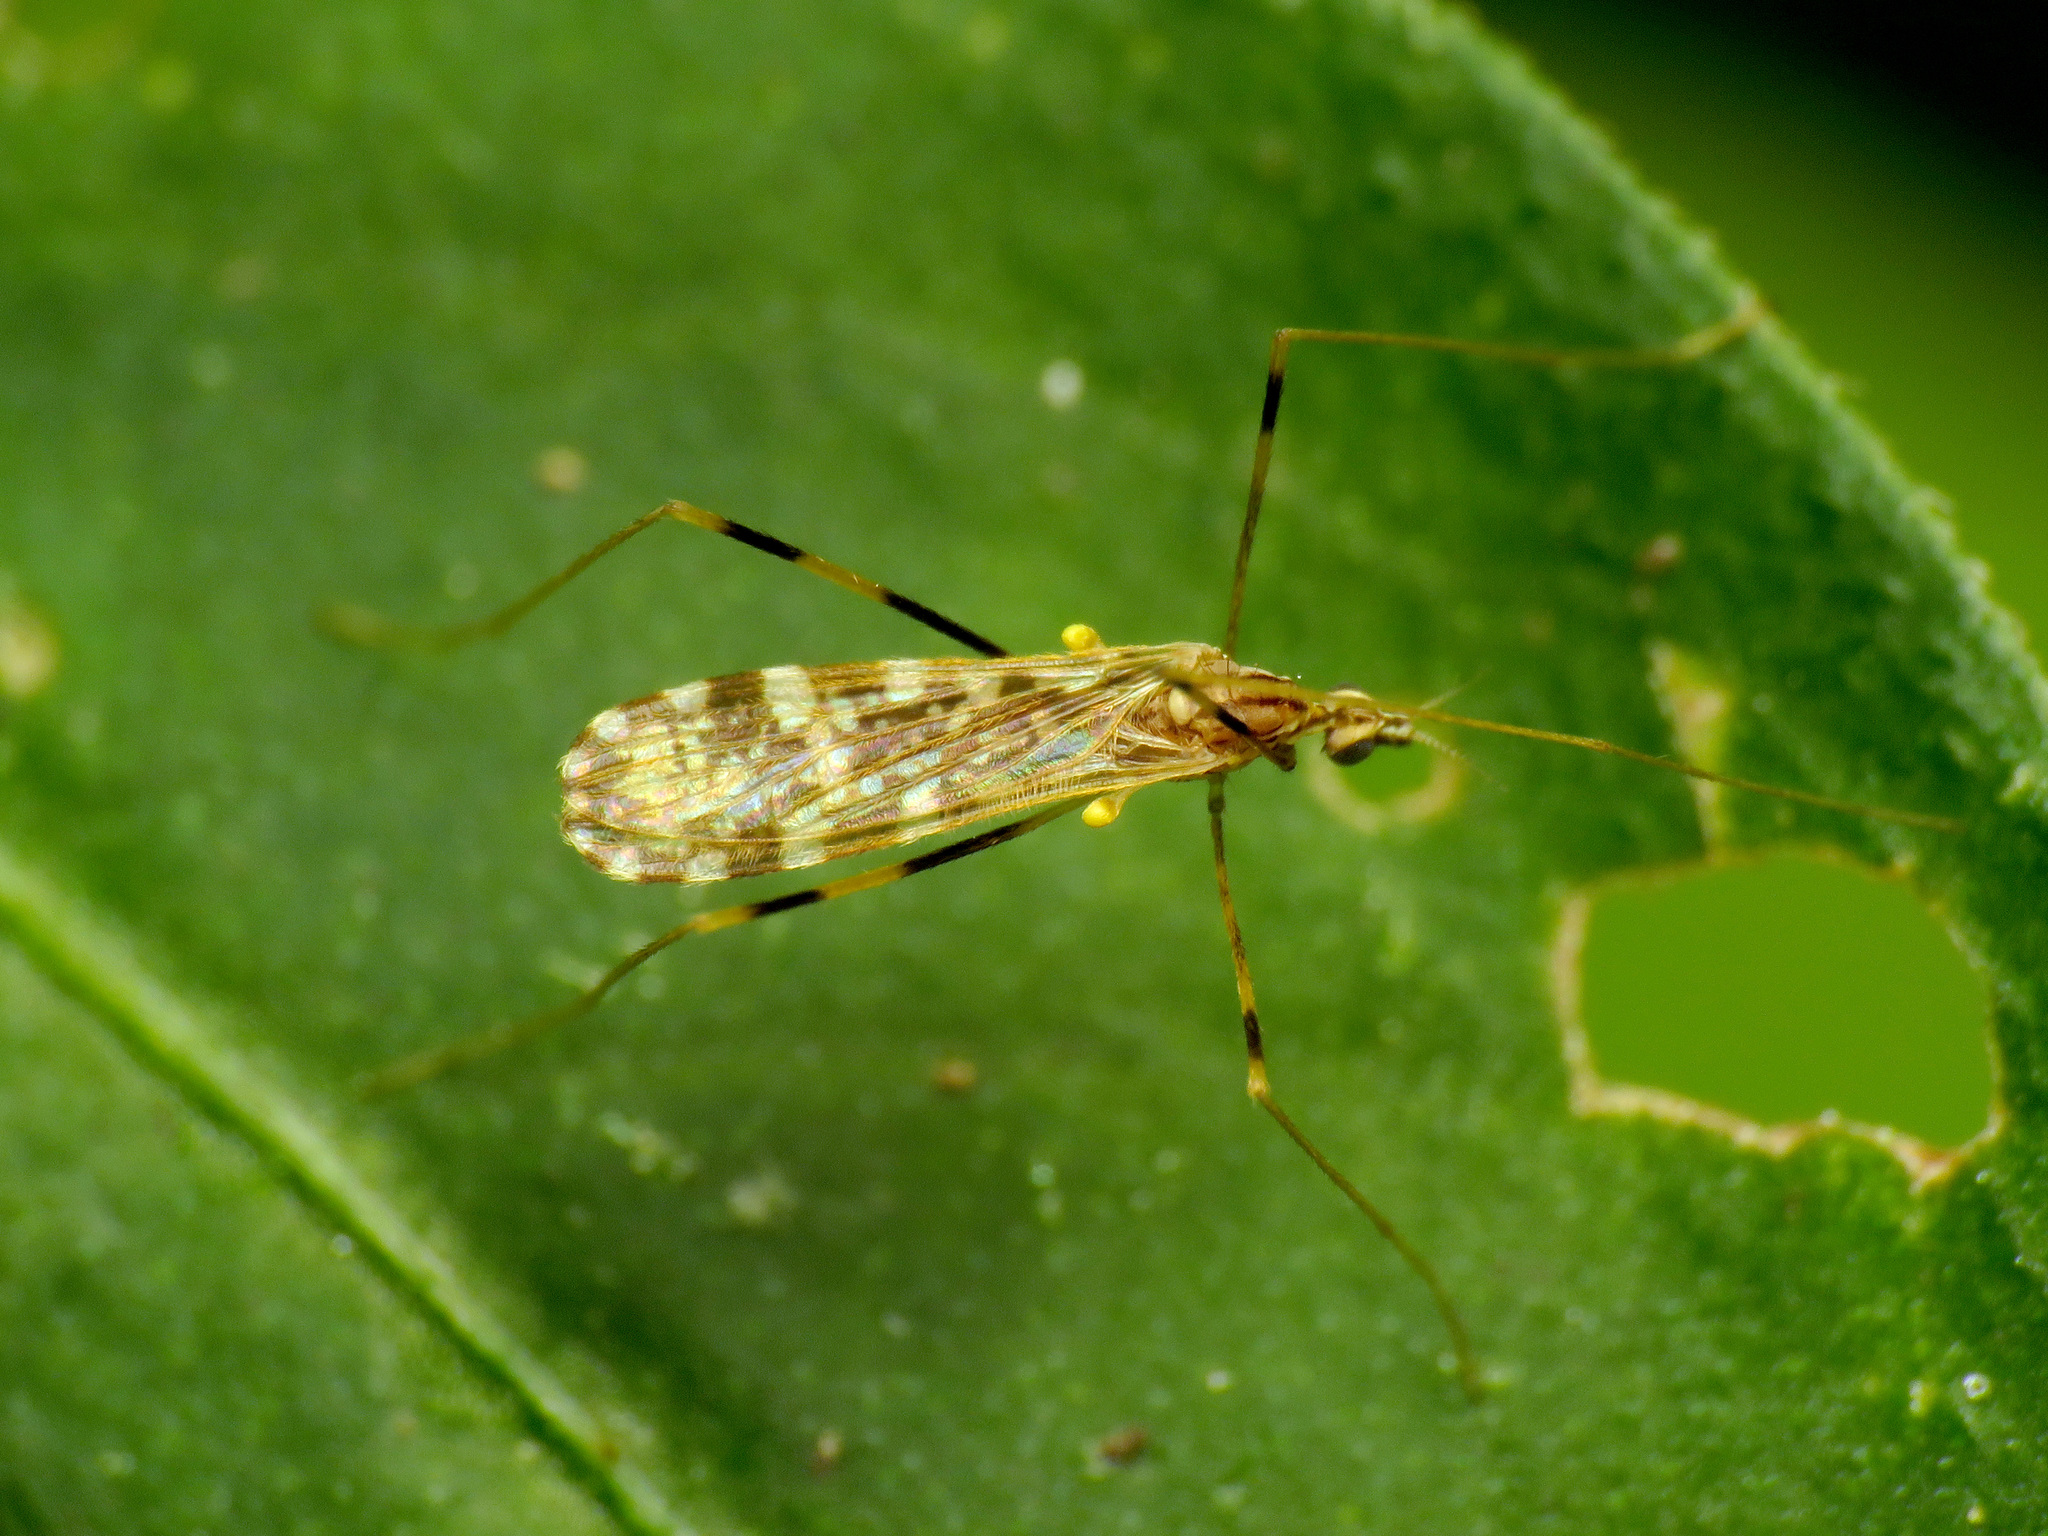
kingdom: Animalia
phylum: Arthropoda
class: Insecta
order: Diptera
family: Limoniidae
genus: Erioptera
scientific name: Erioptera caliptera
